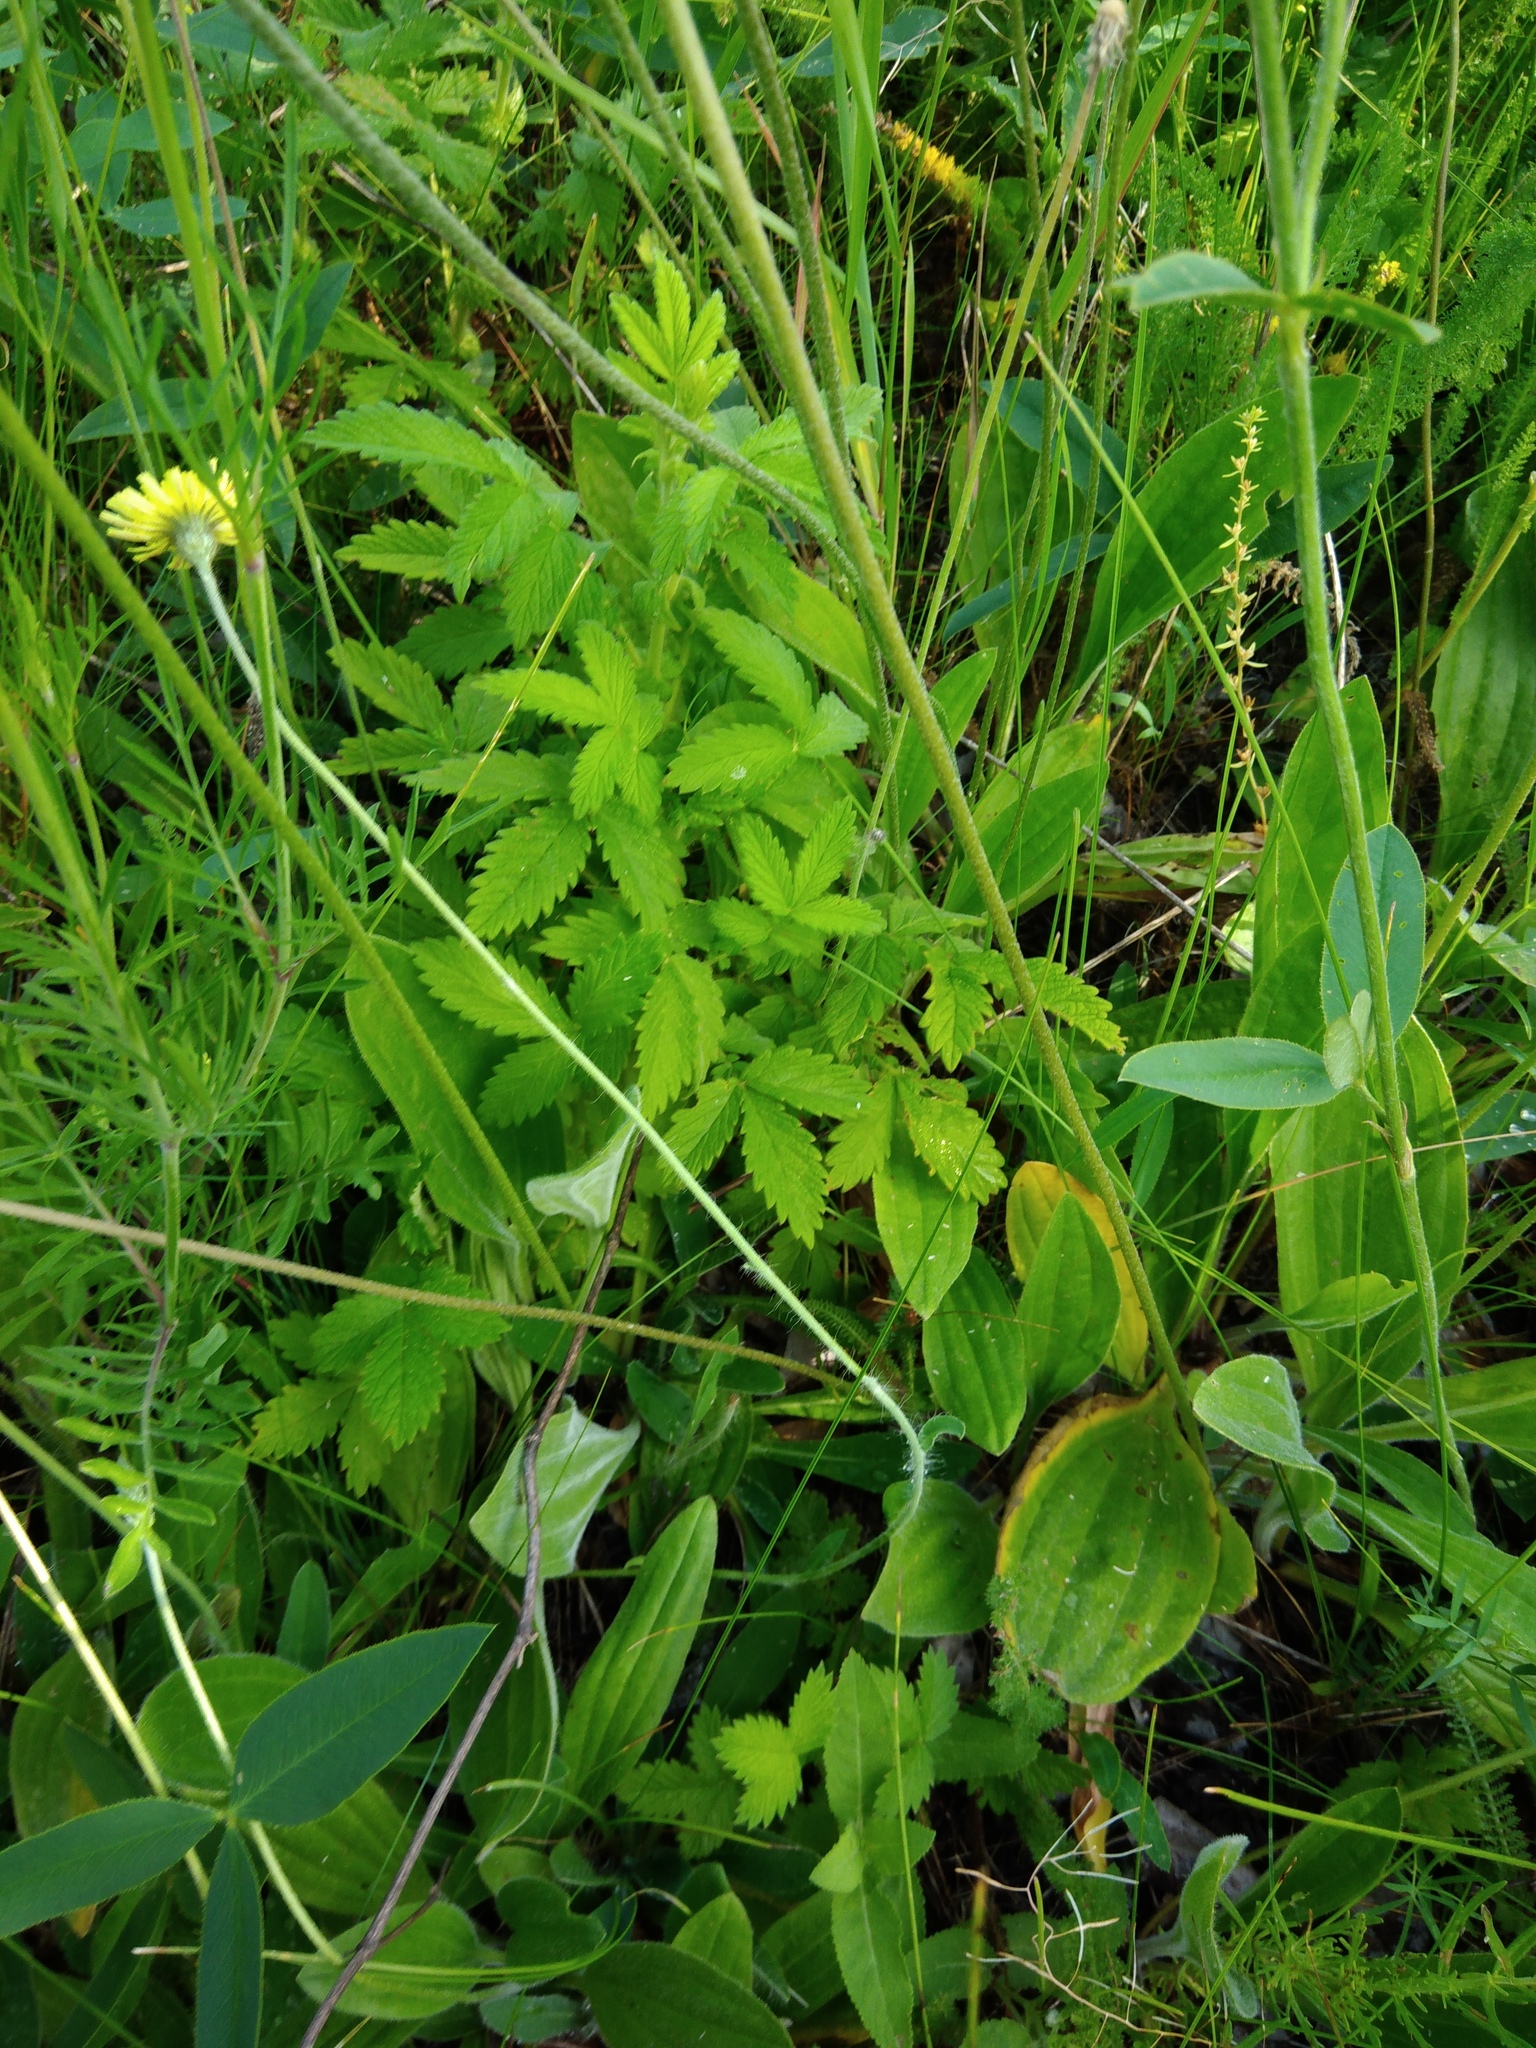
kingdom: Plantae
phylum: Tracheophyta
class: Magnoliopsida
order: Asterales
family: Asteraceae
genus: Pilosella
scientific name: Pilosella officinarum
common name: Mouse-ear hawkweed
